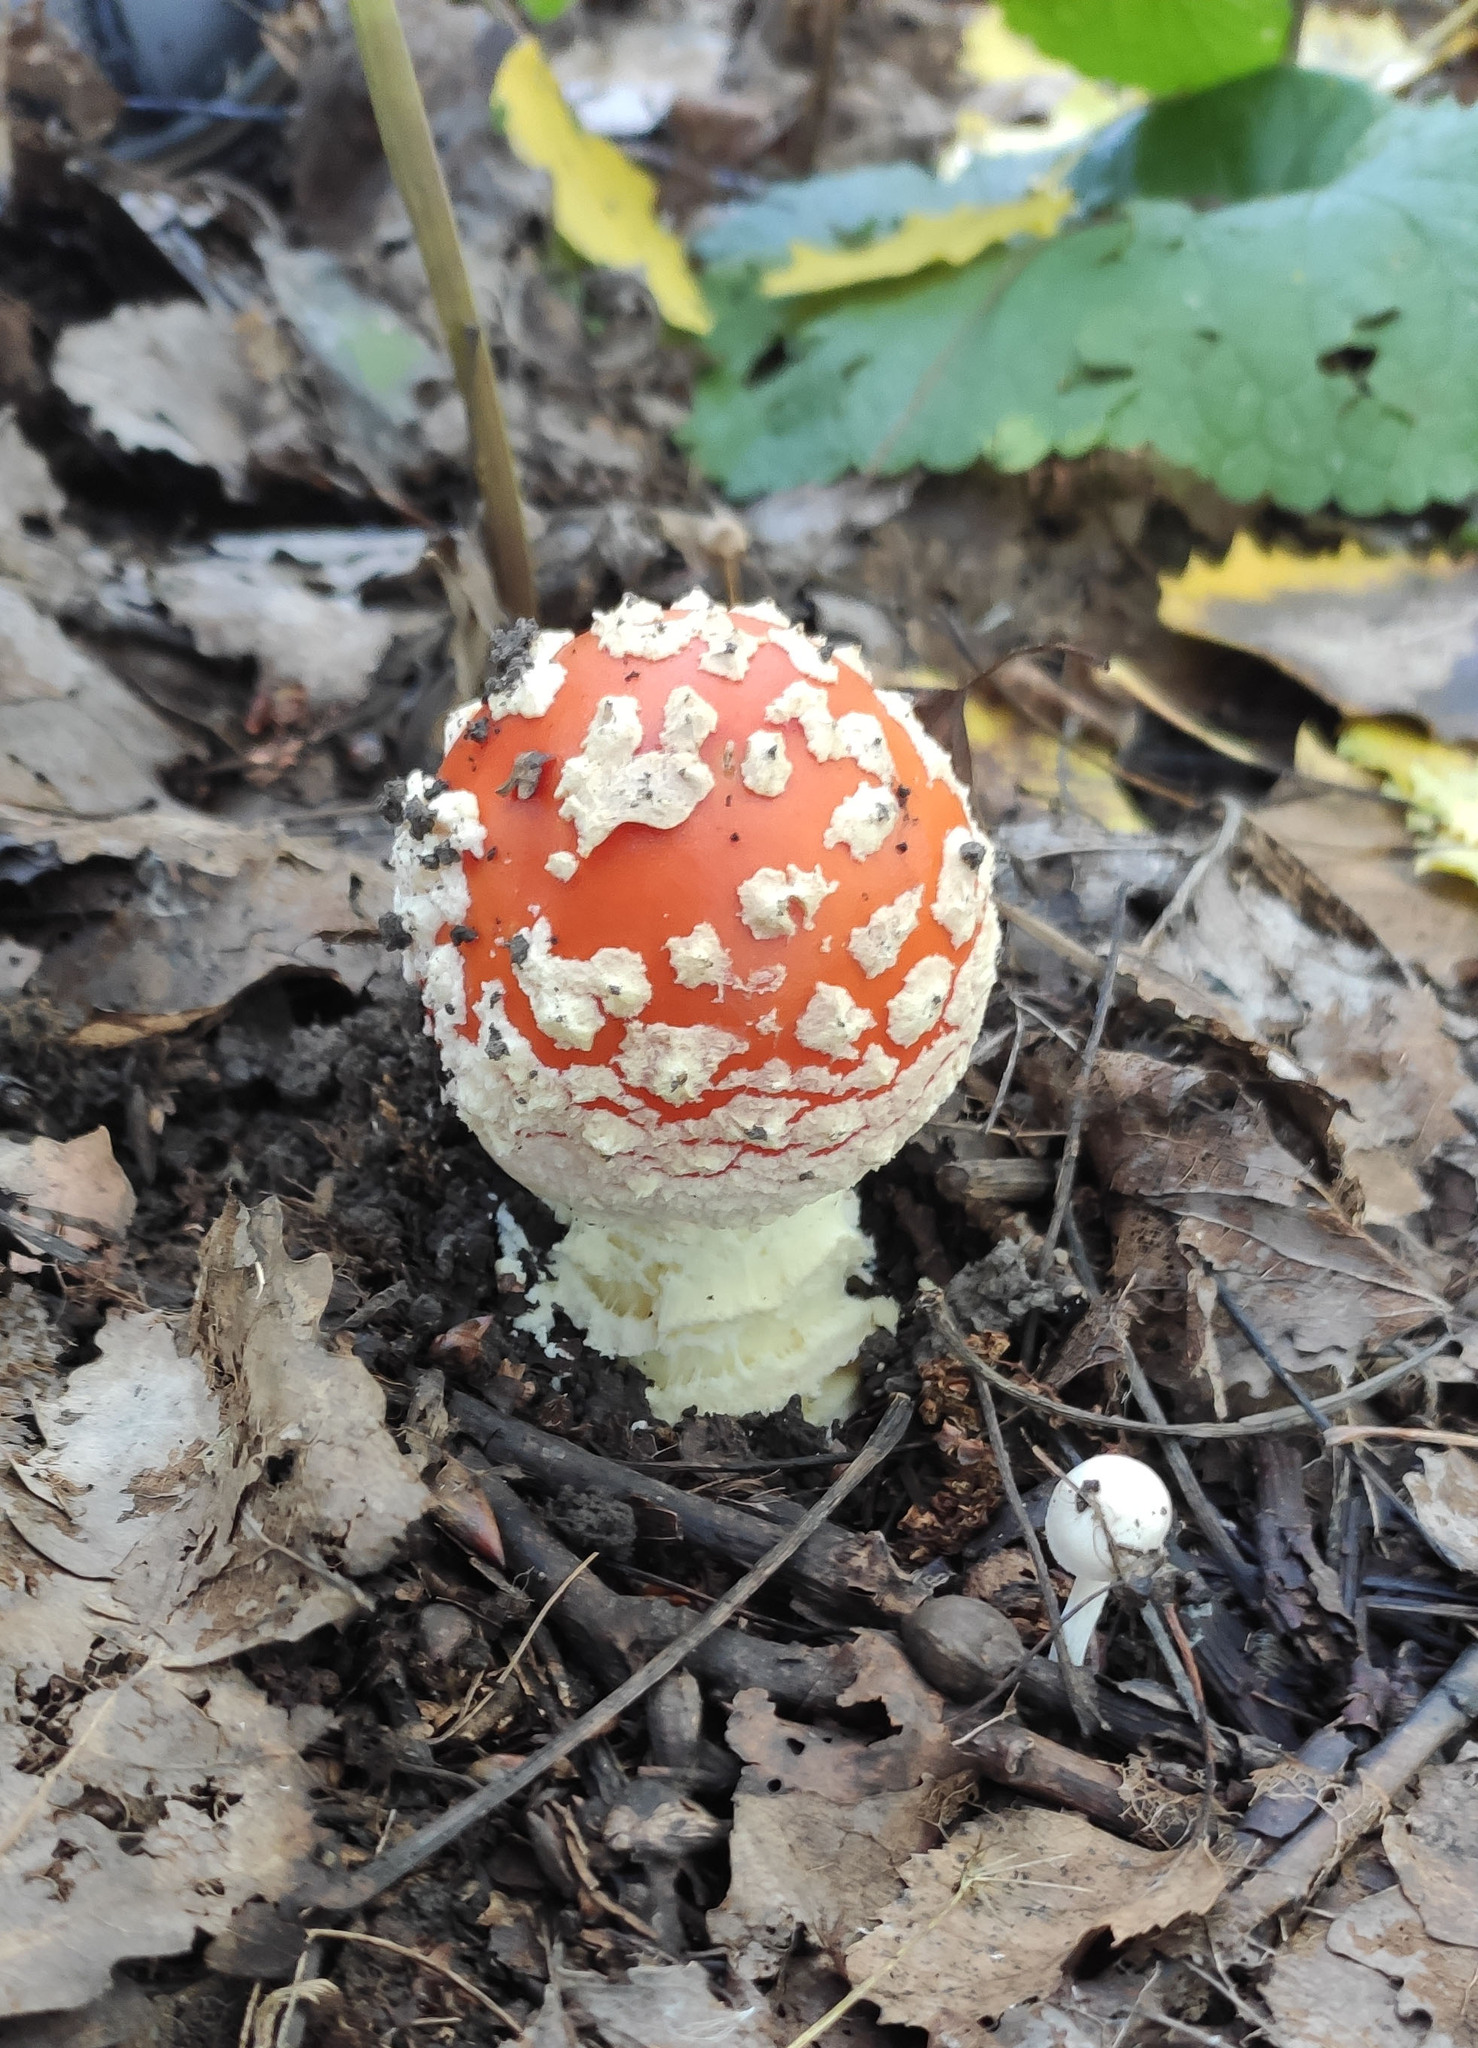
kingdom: Fungi
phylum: Basidiomycota
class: Agaricomycetes
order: Agaricales
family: Amanitaceae
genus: Amanita
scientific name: Amanita muscaria
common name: Fly agaric
